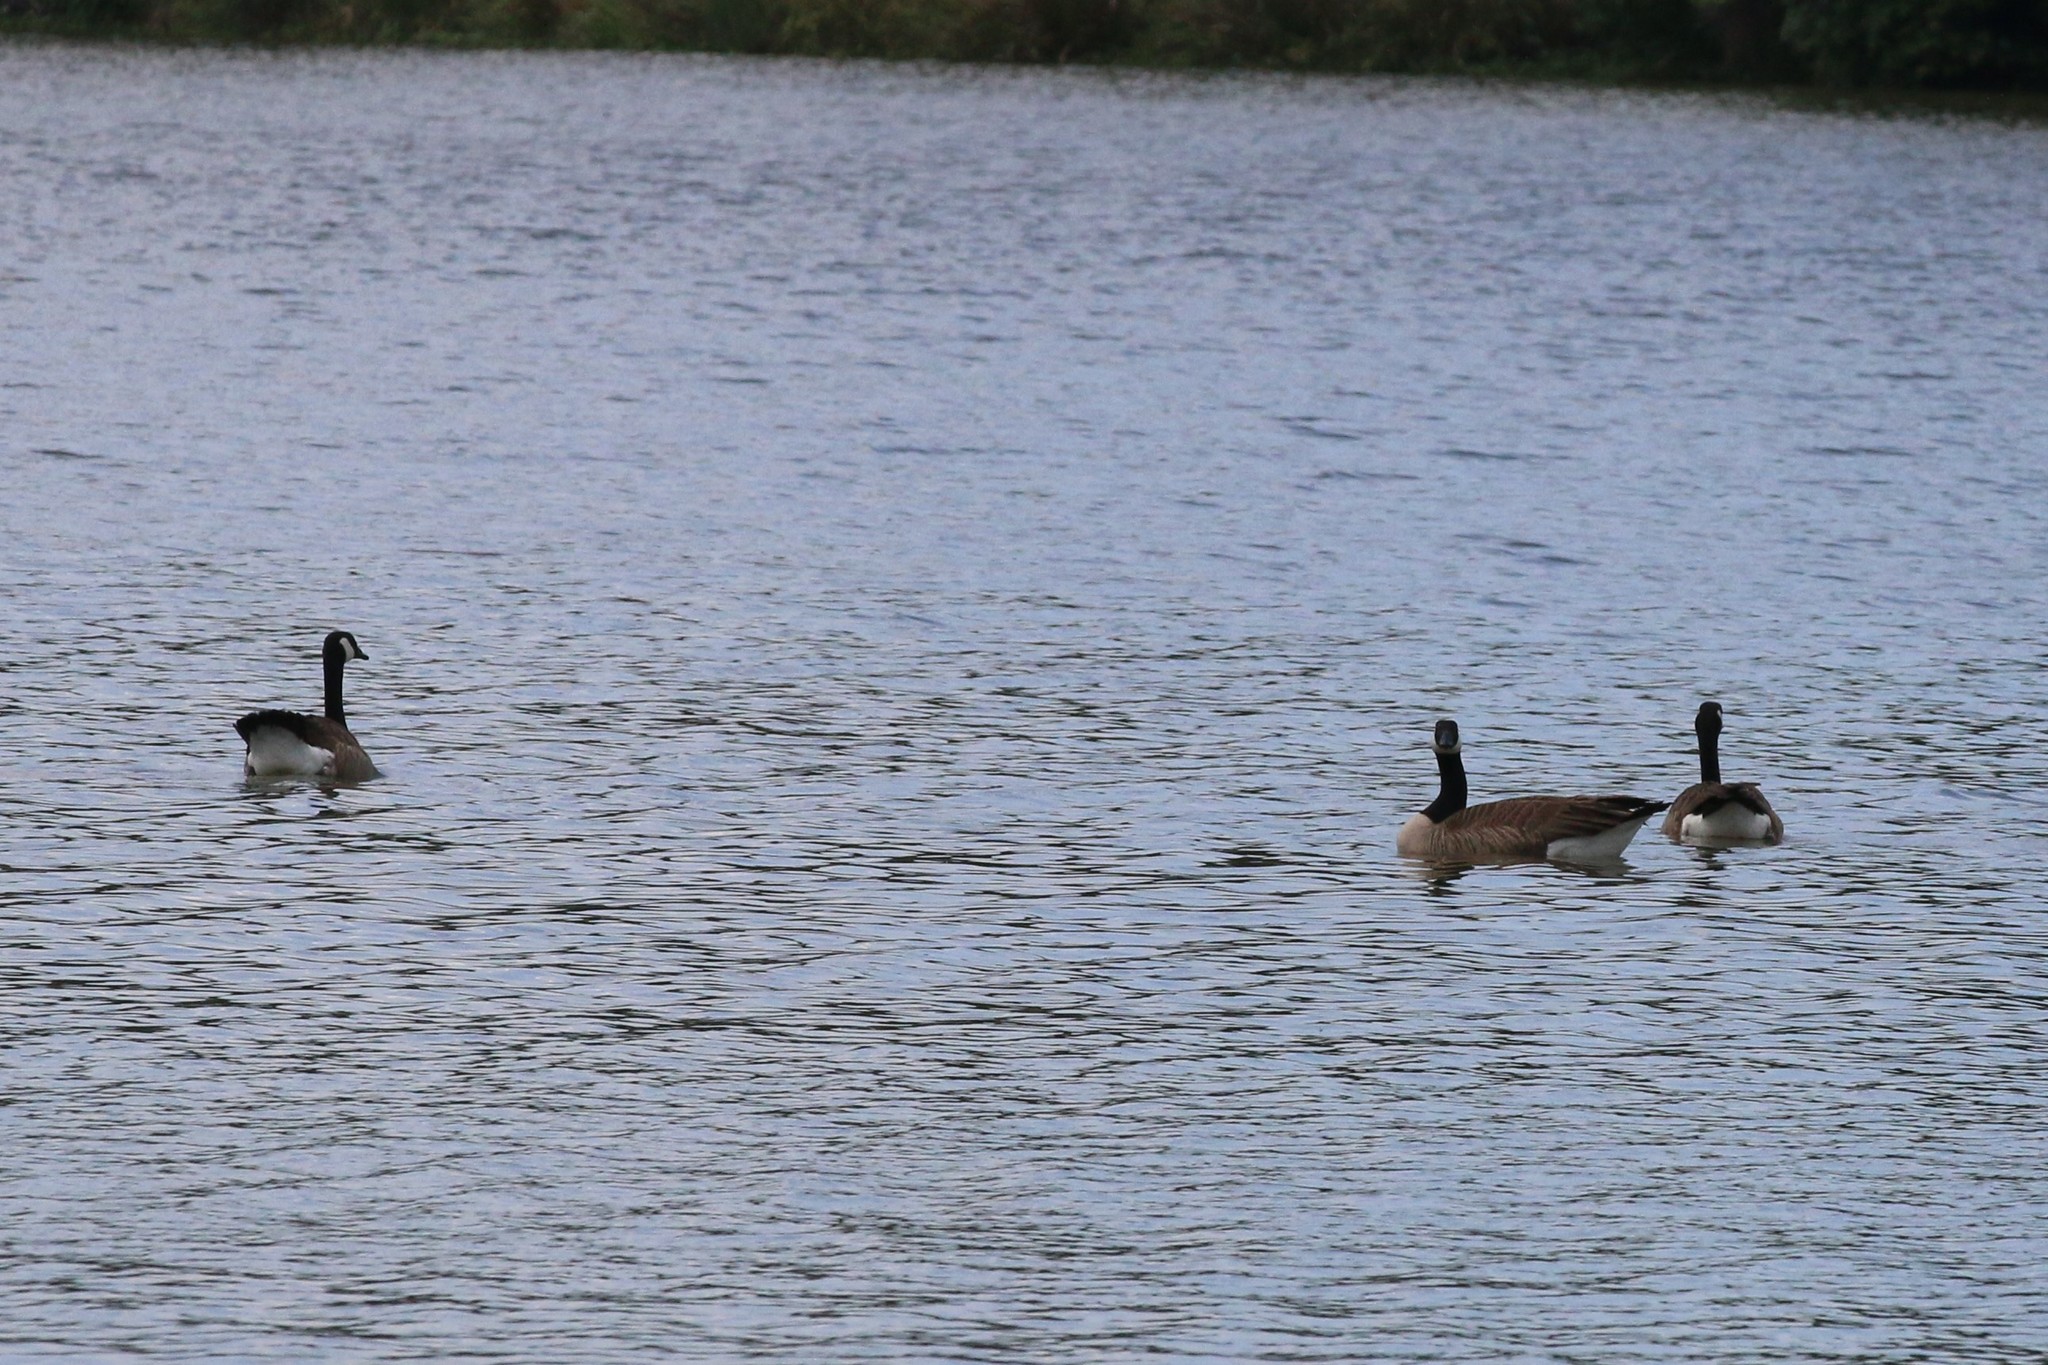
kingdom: Animalia
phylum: Chordata
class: Aves
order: Anseriformes
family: Anatidae
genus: Branta
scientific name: Branta canadensis
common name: Canada goose
